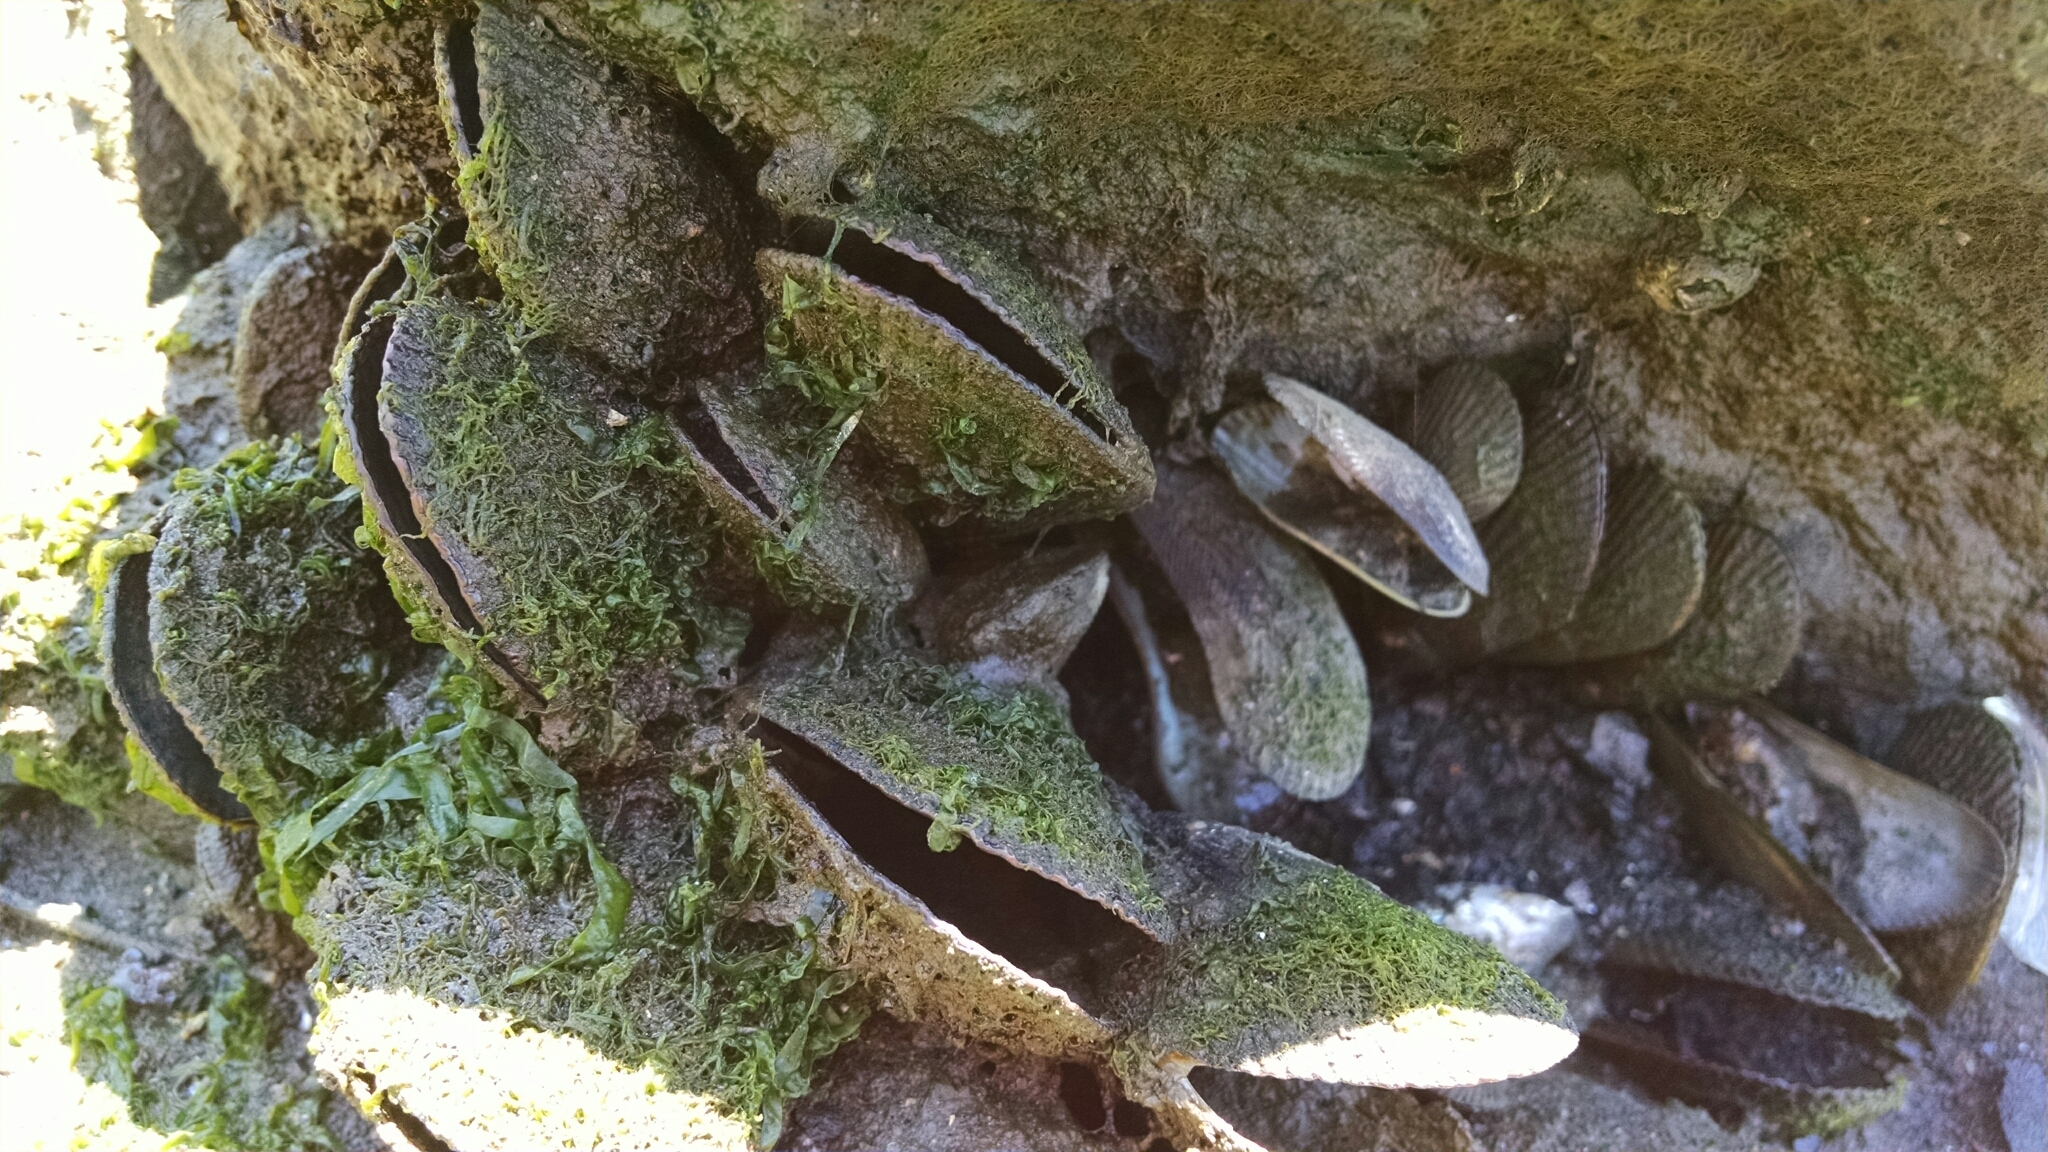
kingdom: Animalia
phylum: Mollusca
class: Bivalvia
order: Mytilida
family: Mytilidae
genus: Geukensia
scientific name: Geukensia demissa
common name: Ribbed mussel
